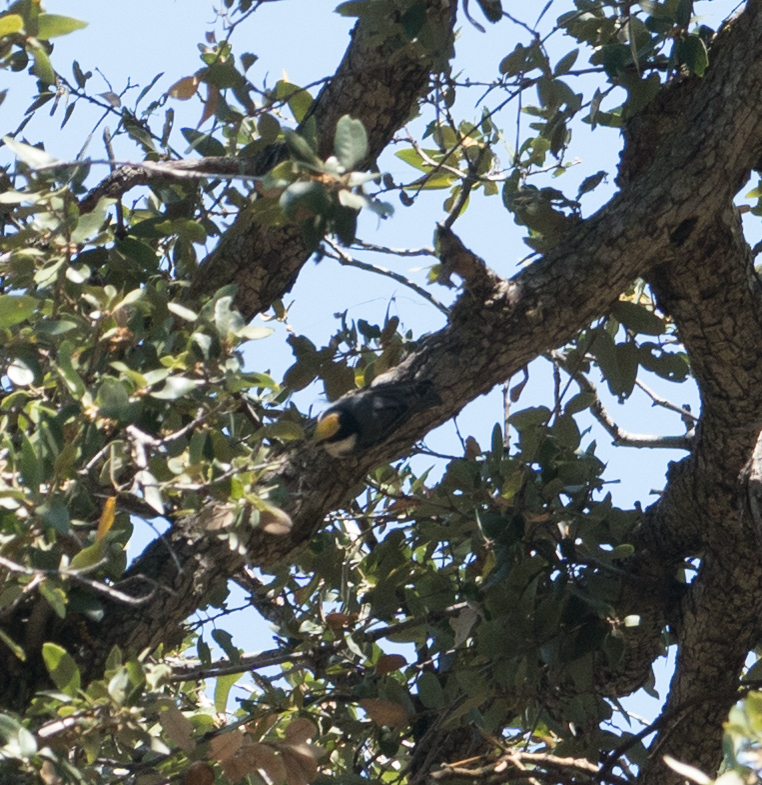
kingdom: Animalia
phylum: Chordata
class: Aves
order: Passeriformes
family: Sittidae
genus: Sitta
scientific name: Sitta carolinensis
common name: White-breasted nuthatch
